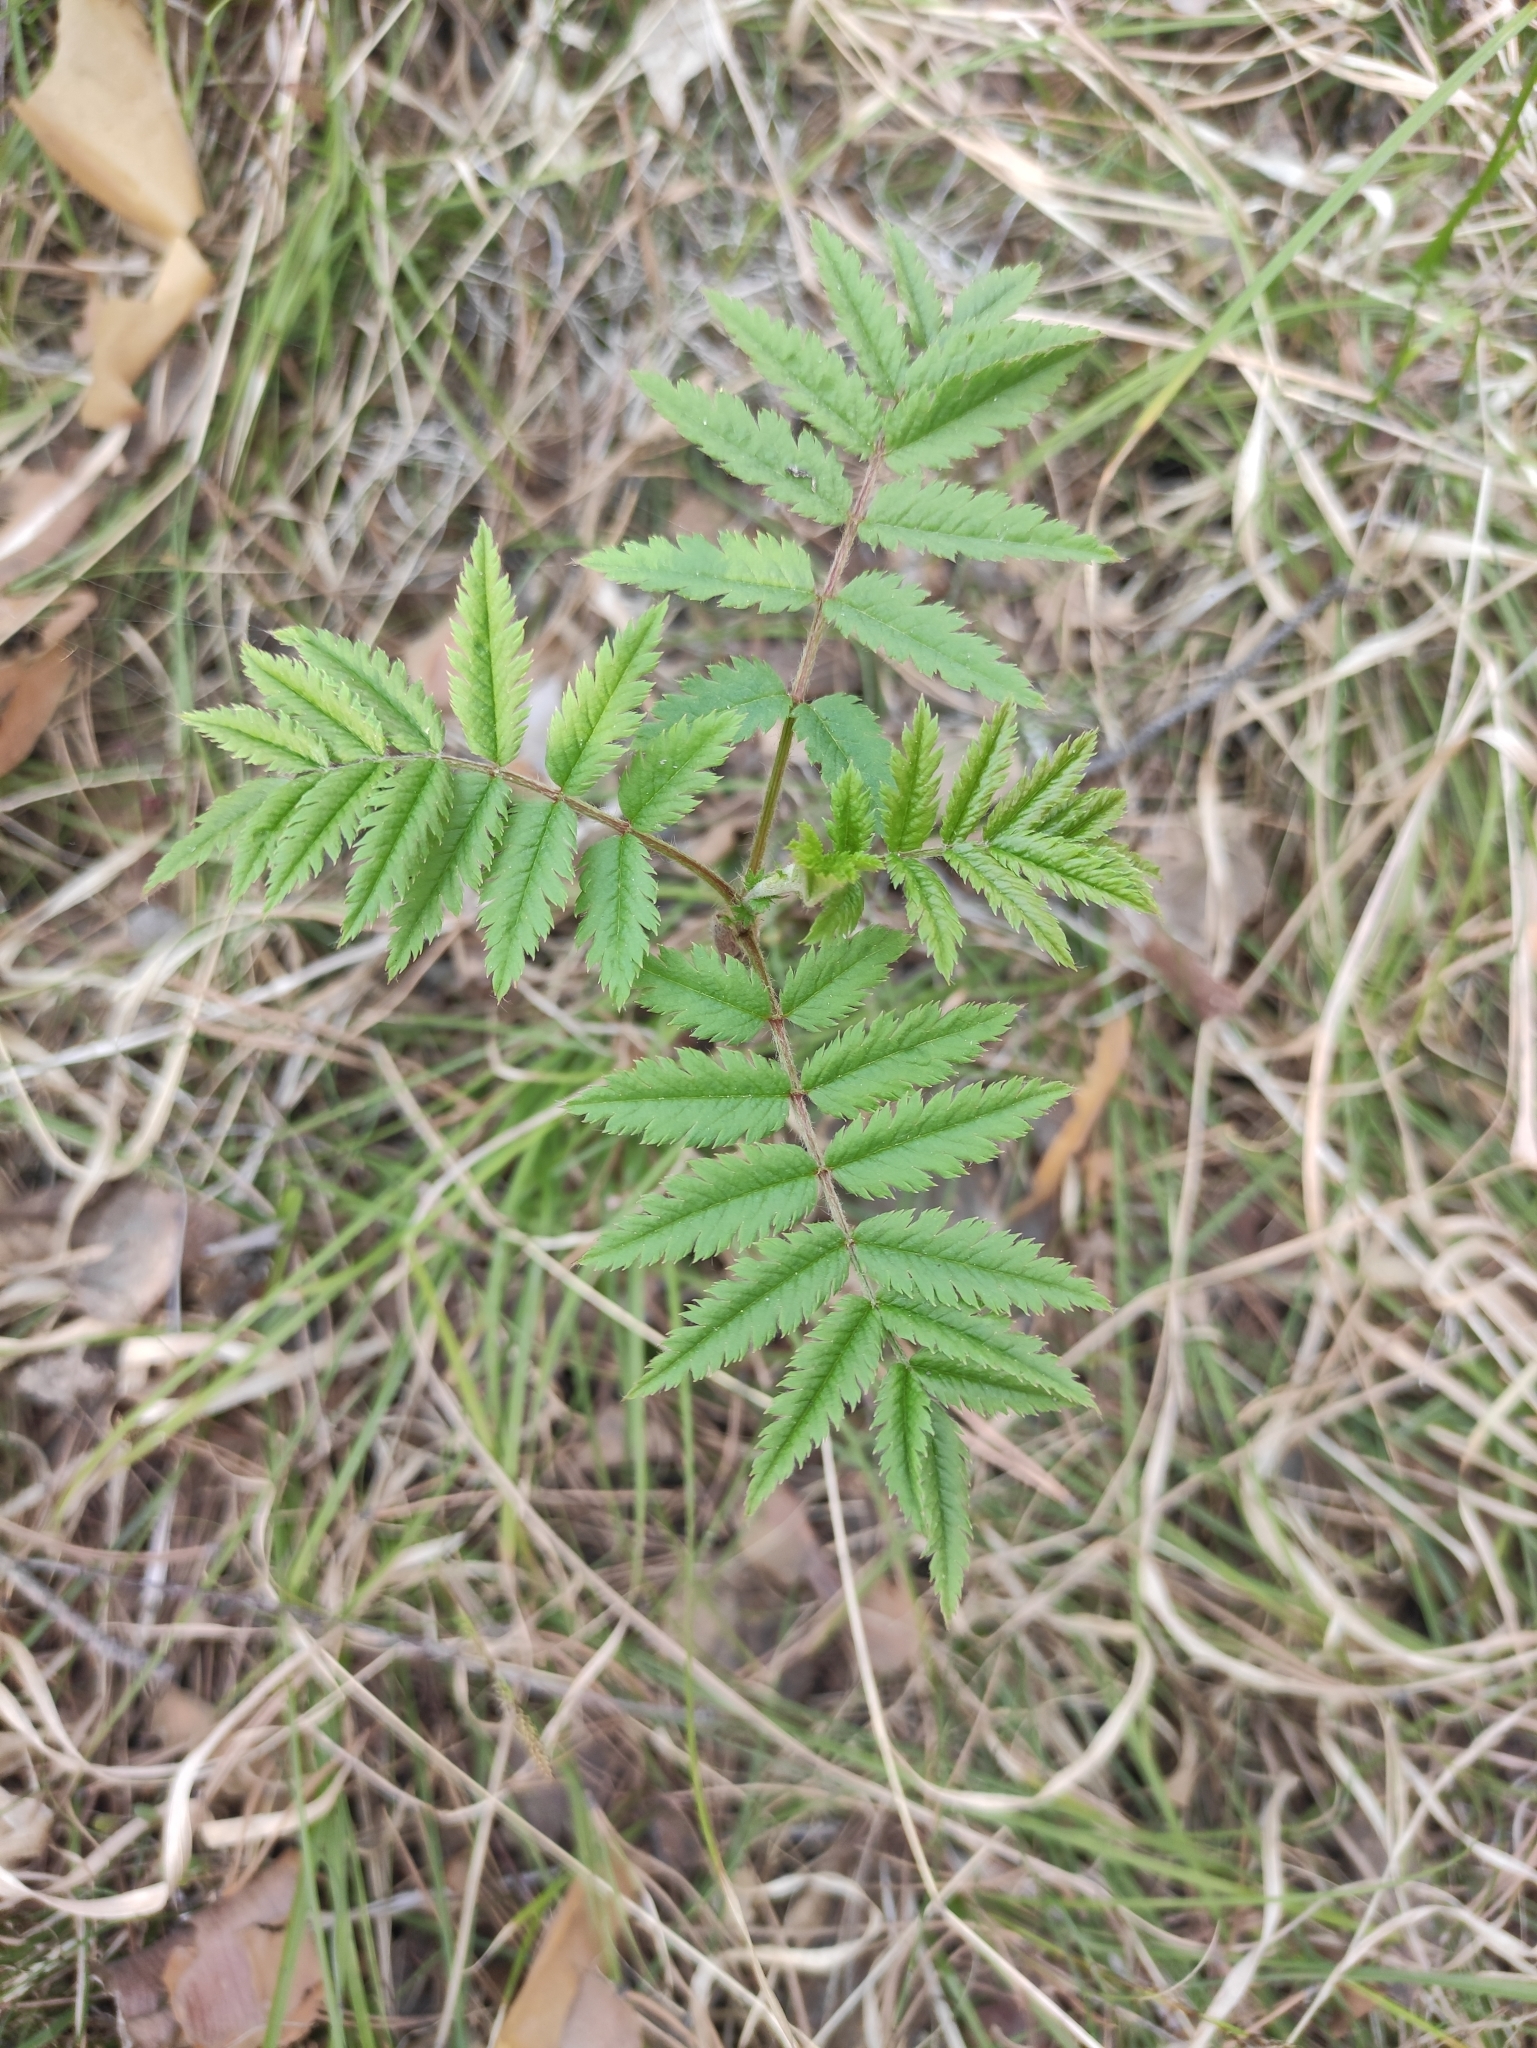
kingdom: Plantae
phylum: Tracheophyta
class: Magnoliopsida
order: Rosales
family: Rosaceae
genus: Sorbus
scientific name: Sorbus aucuparia
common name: Rowan
